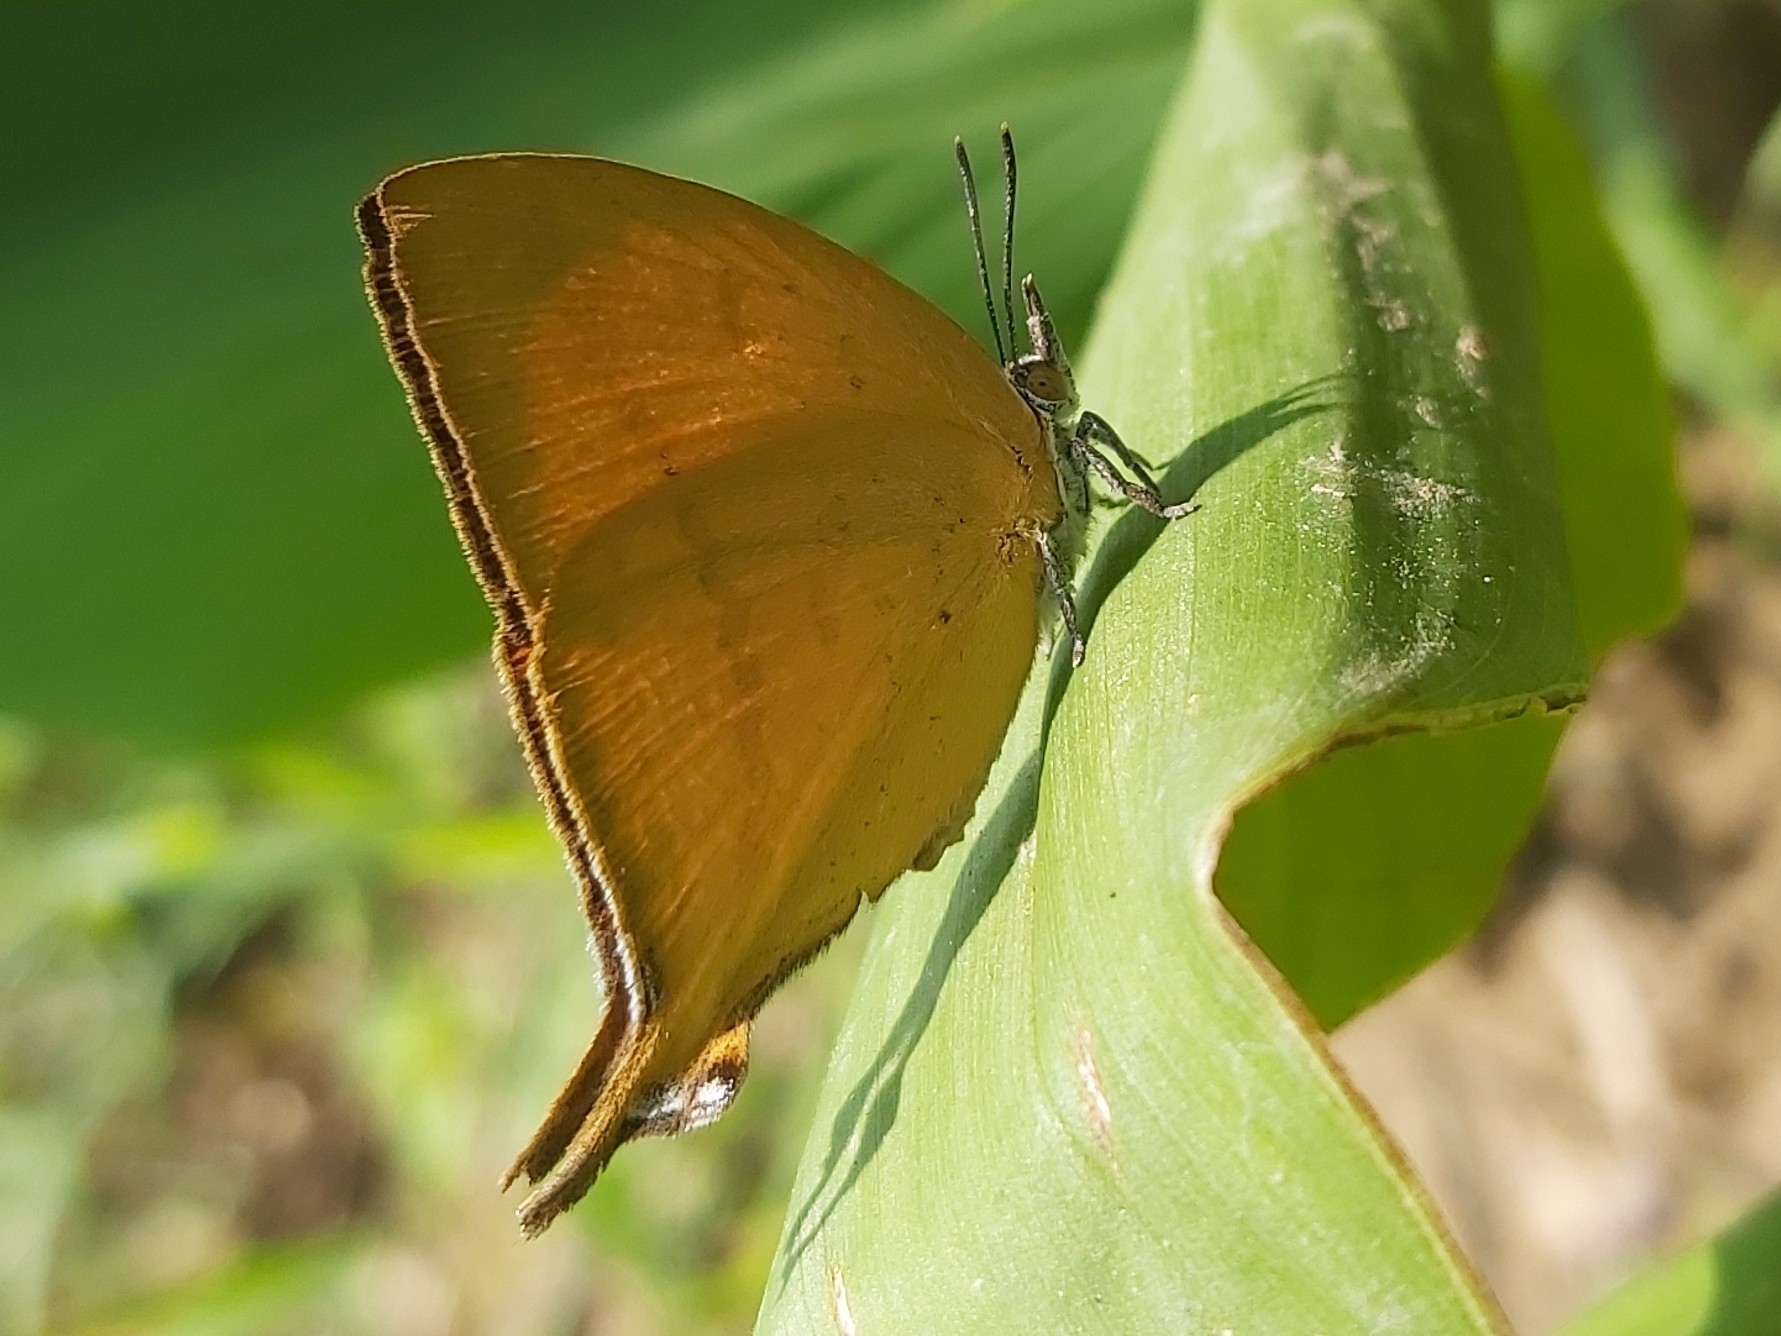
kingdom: Animalia
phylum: Arthropoda
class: Insecta
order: Lepidoptera
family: Lycaenidae
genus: Loxura
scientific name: Loxura atymnus
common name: Common yamfly
